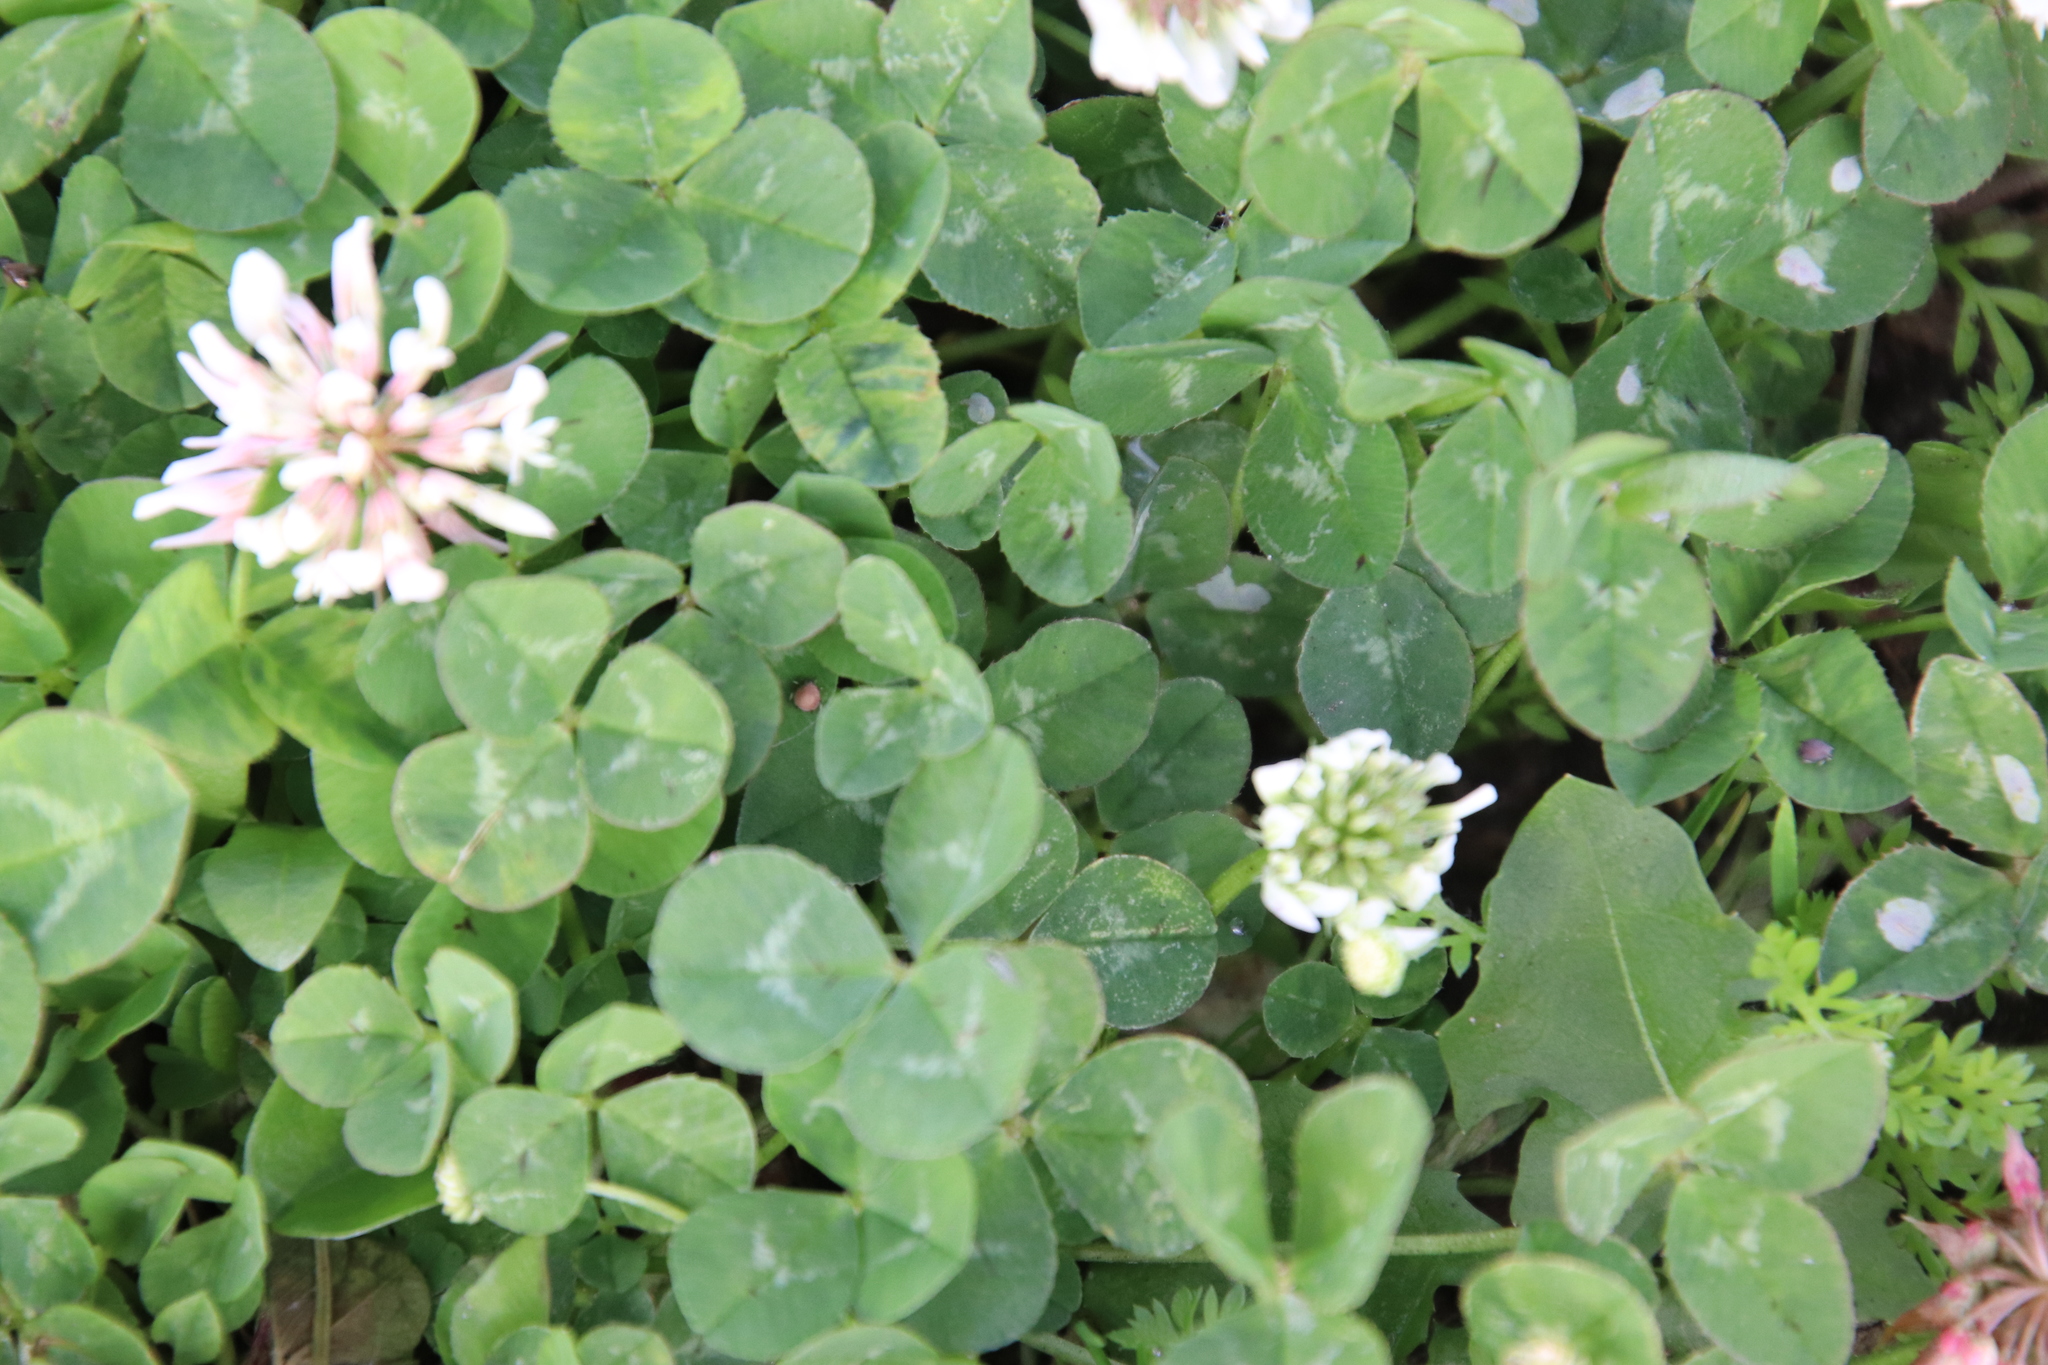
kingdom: Plantae
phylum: Tracheophyta
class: Magnoliopsida
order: Fabales
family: Fabaceae
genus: Trifolium
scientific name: Trifolium repens
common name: White clover
